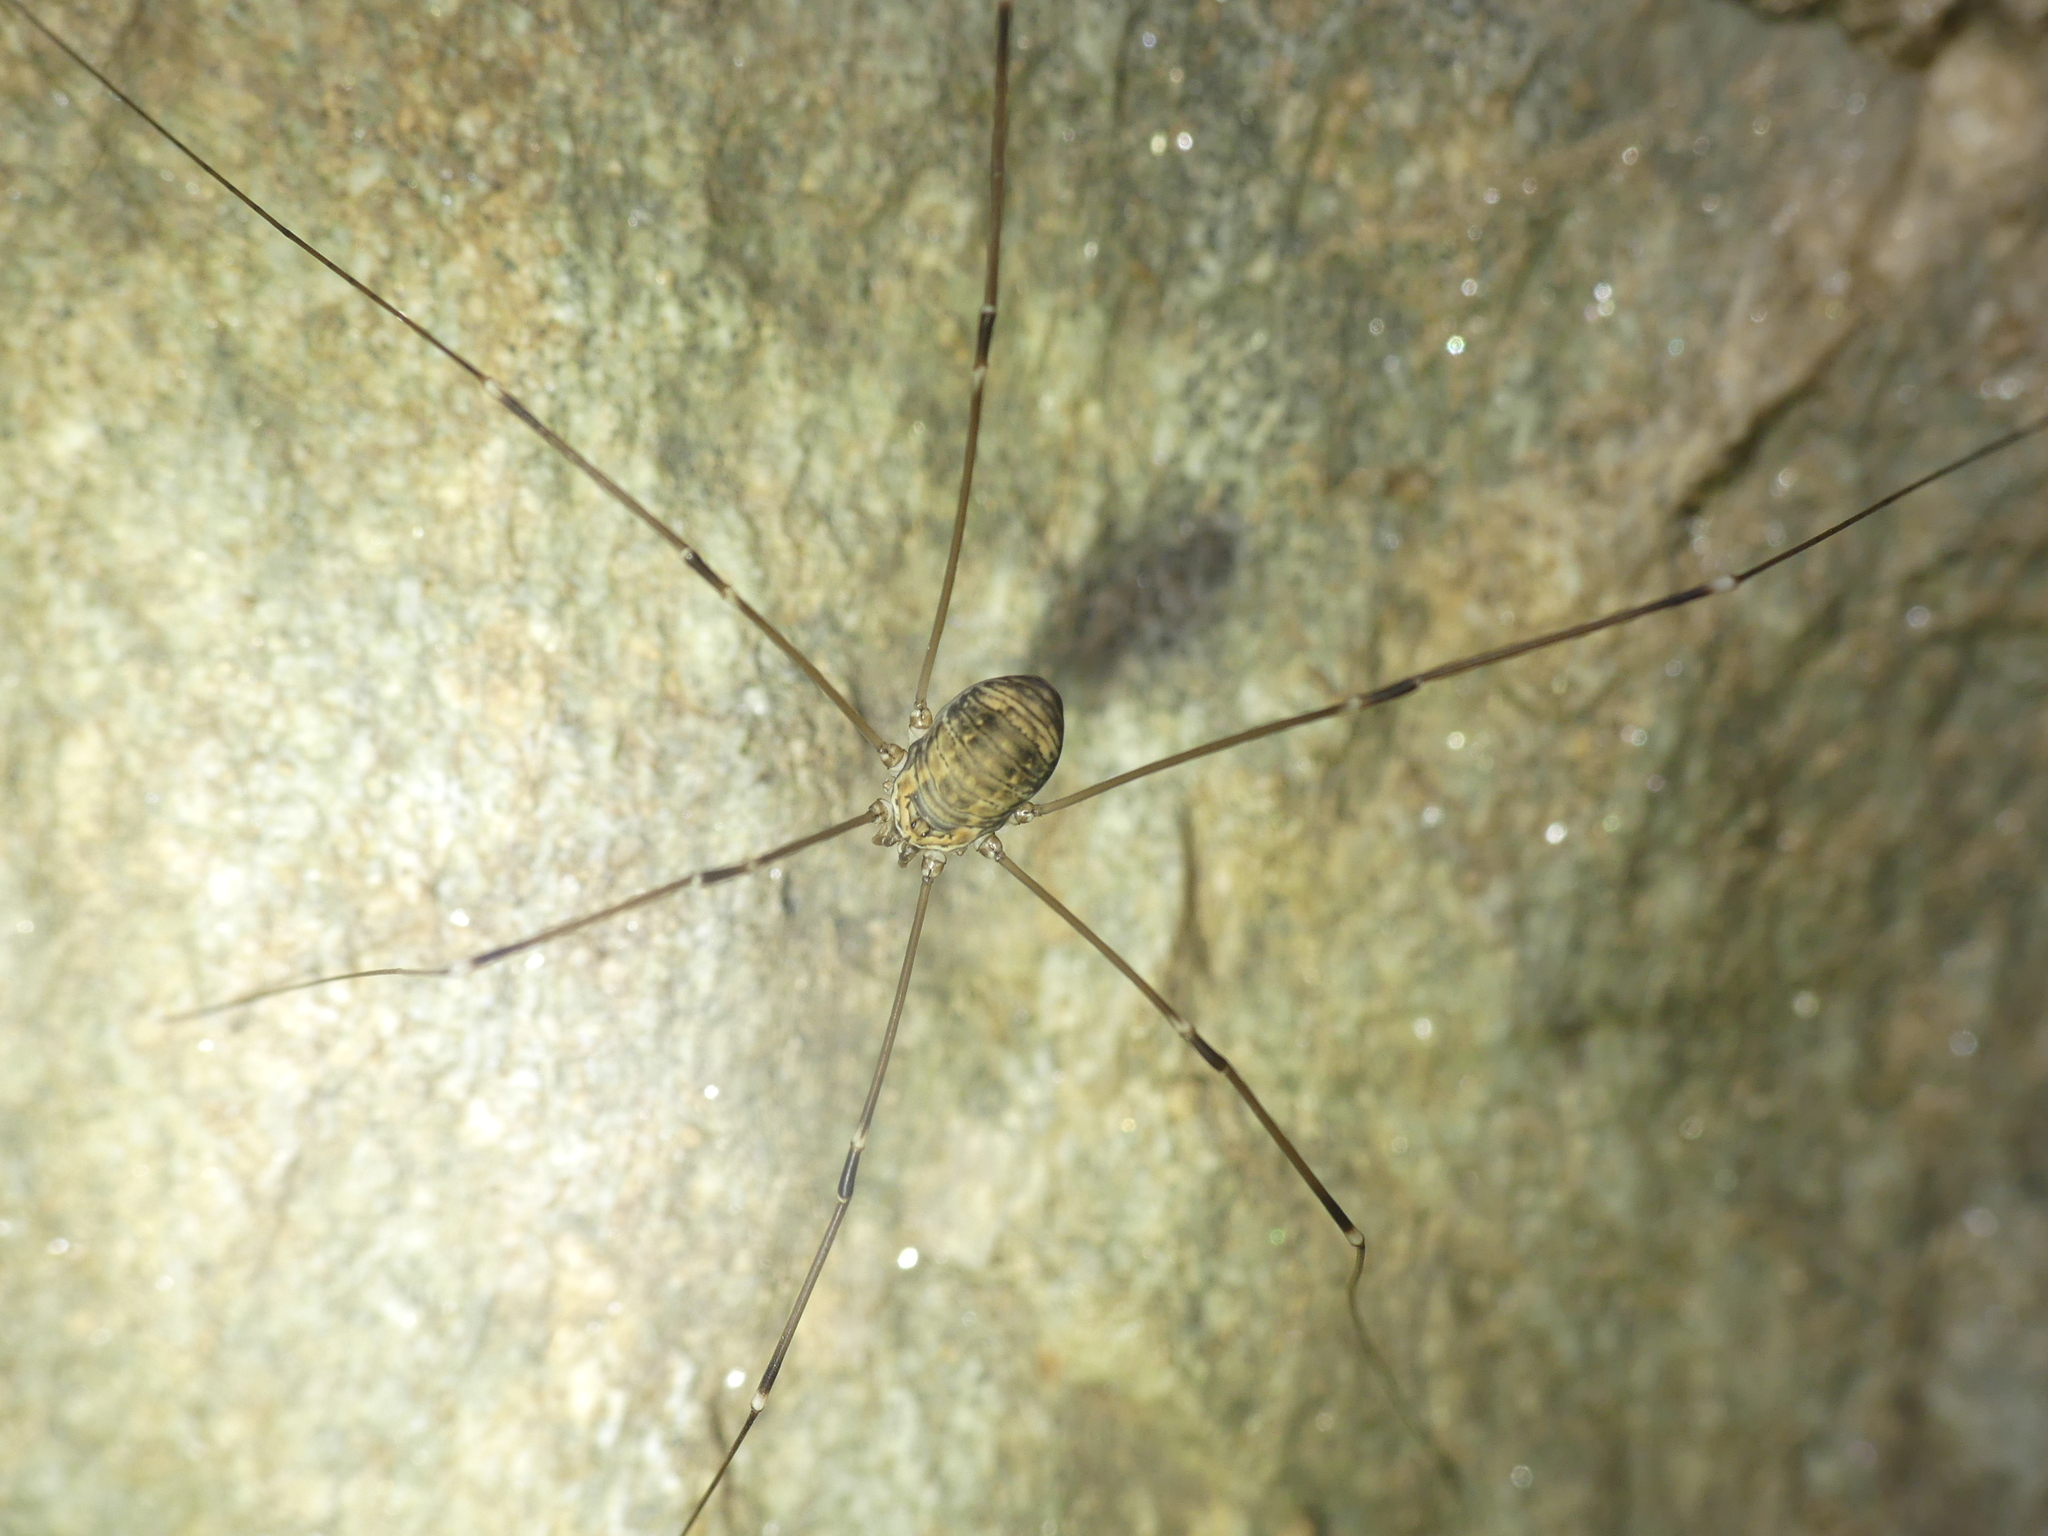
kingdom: Animalia
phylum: Arthropoda
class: Arachnida
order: Opiliones
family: Sclerosomatidae
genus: Leiobunum
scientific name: Leiobunum limbatum
